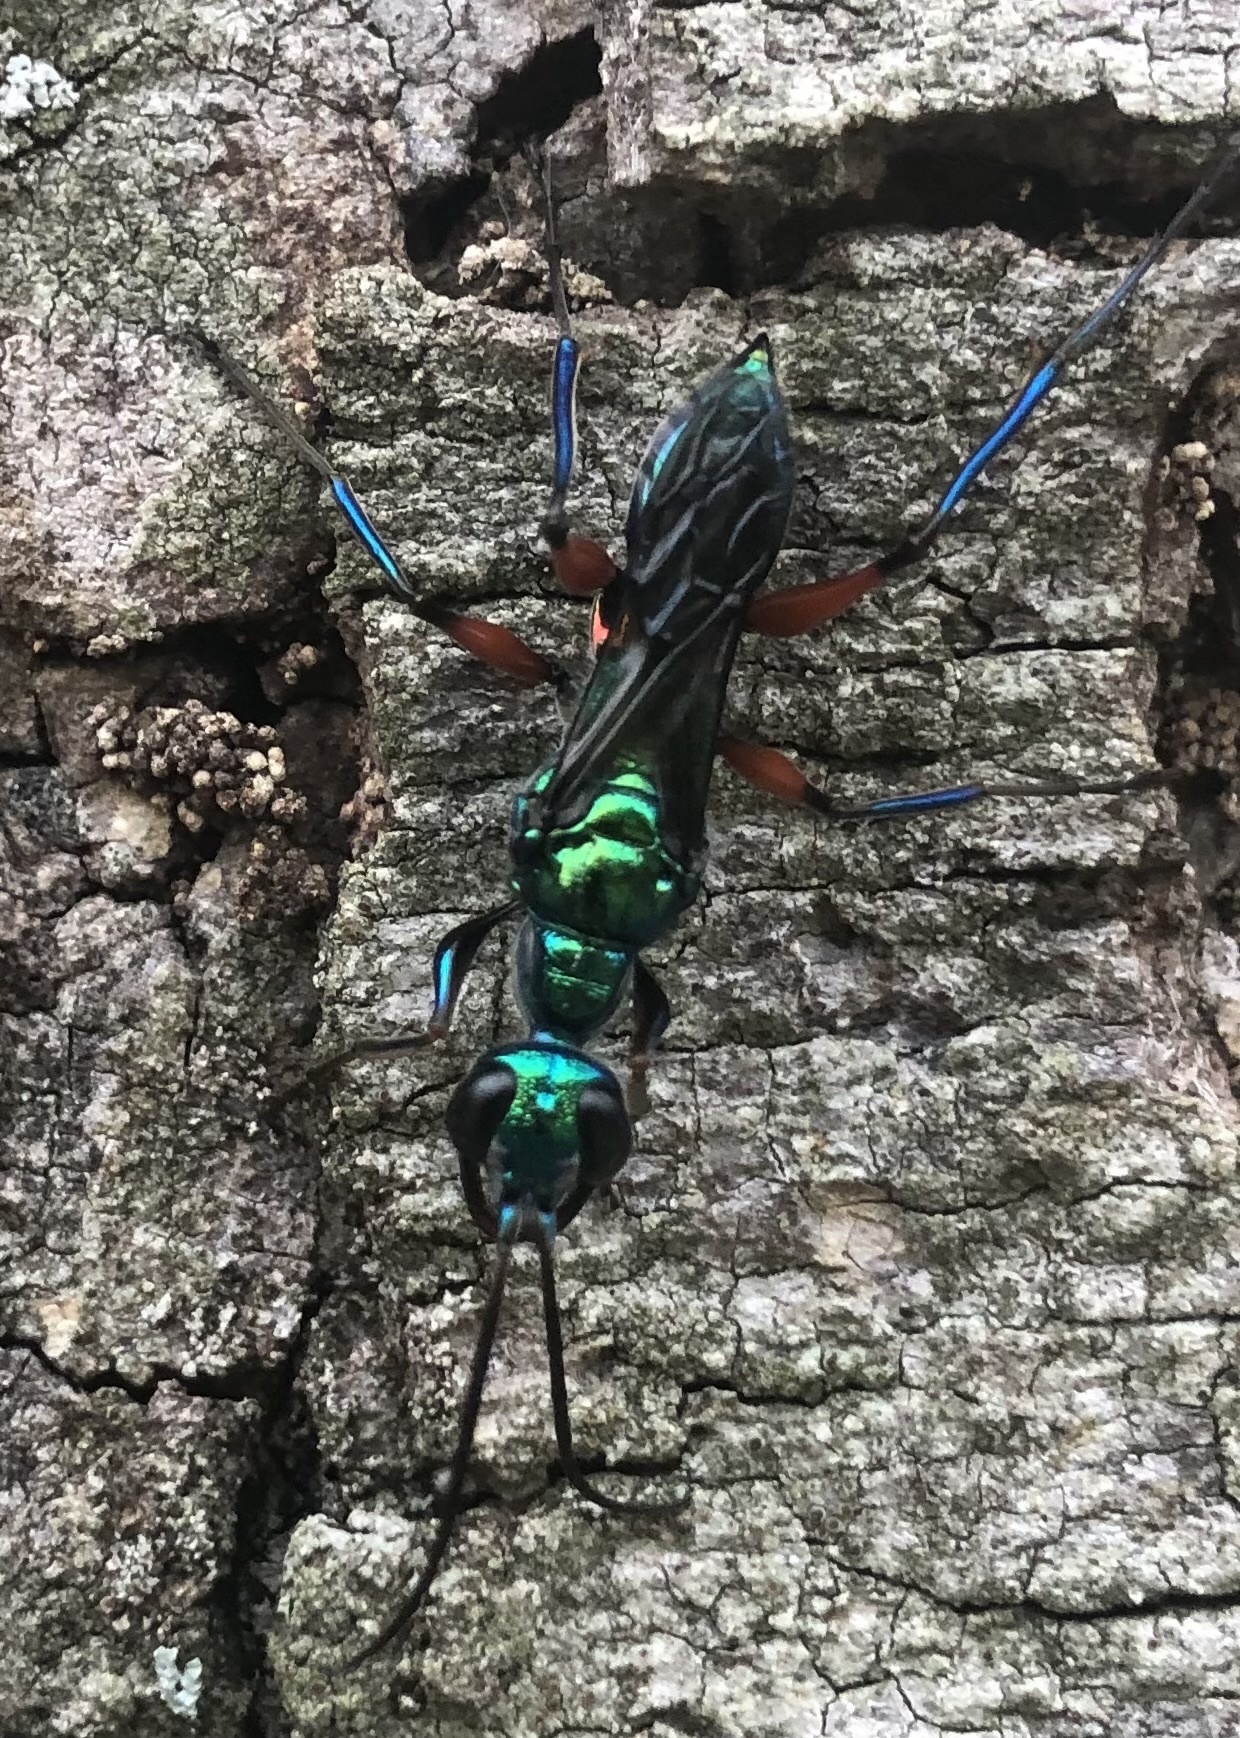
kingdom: Animalia
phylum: Arthropoda
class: Insecta
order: Hymenoptera
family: Ampulicidae
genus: Ampulex
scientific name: Ampulex compressa
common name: Emerald cockroach wasp
